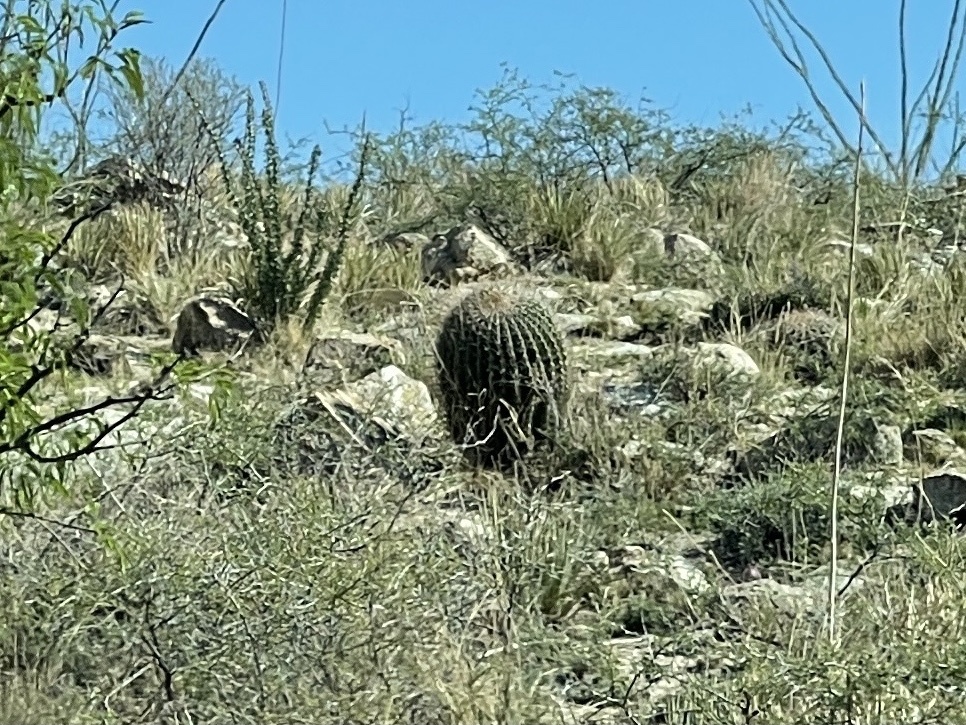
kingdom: Plantae
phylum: Tracheophyta
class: Magnoliopsida
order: Caryophyllales
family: Cactaceae
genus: Ferocactus
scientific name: Ferocactus wislizeni
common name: Candy barrel cactus
